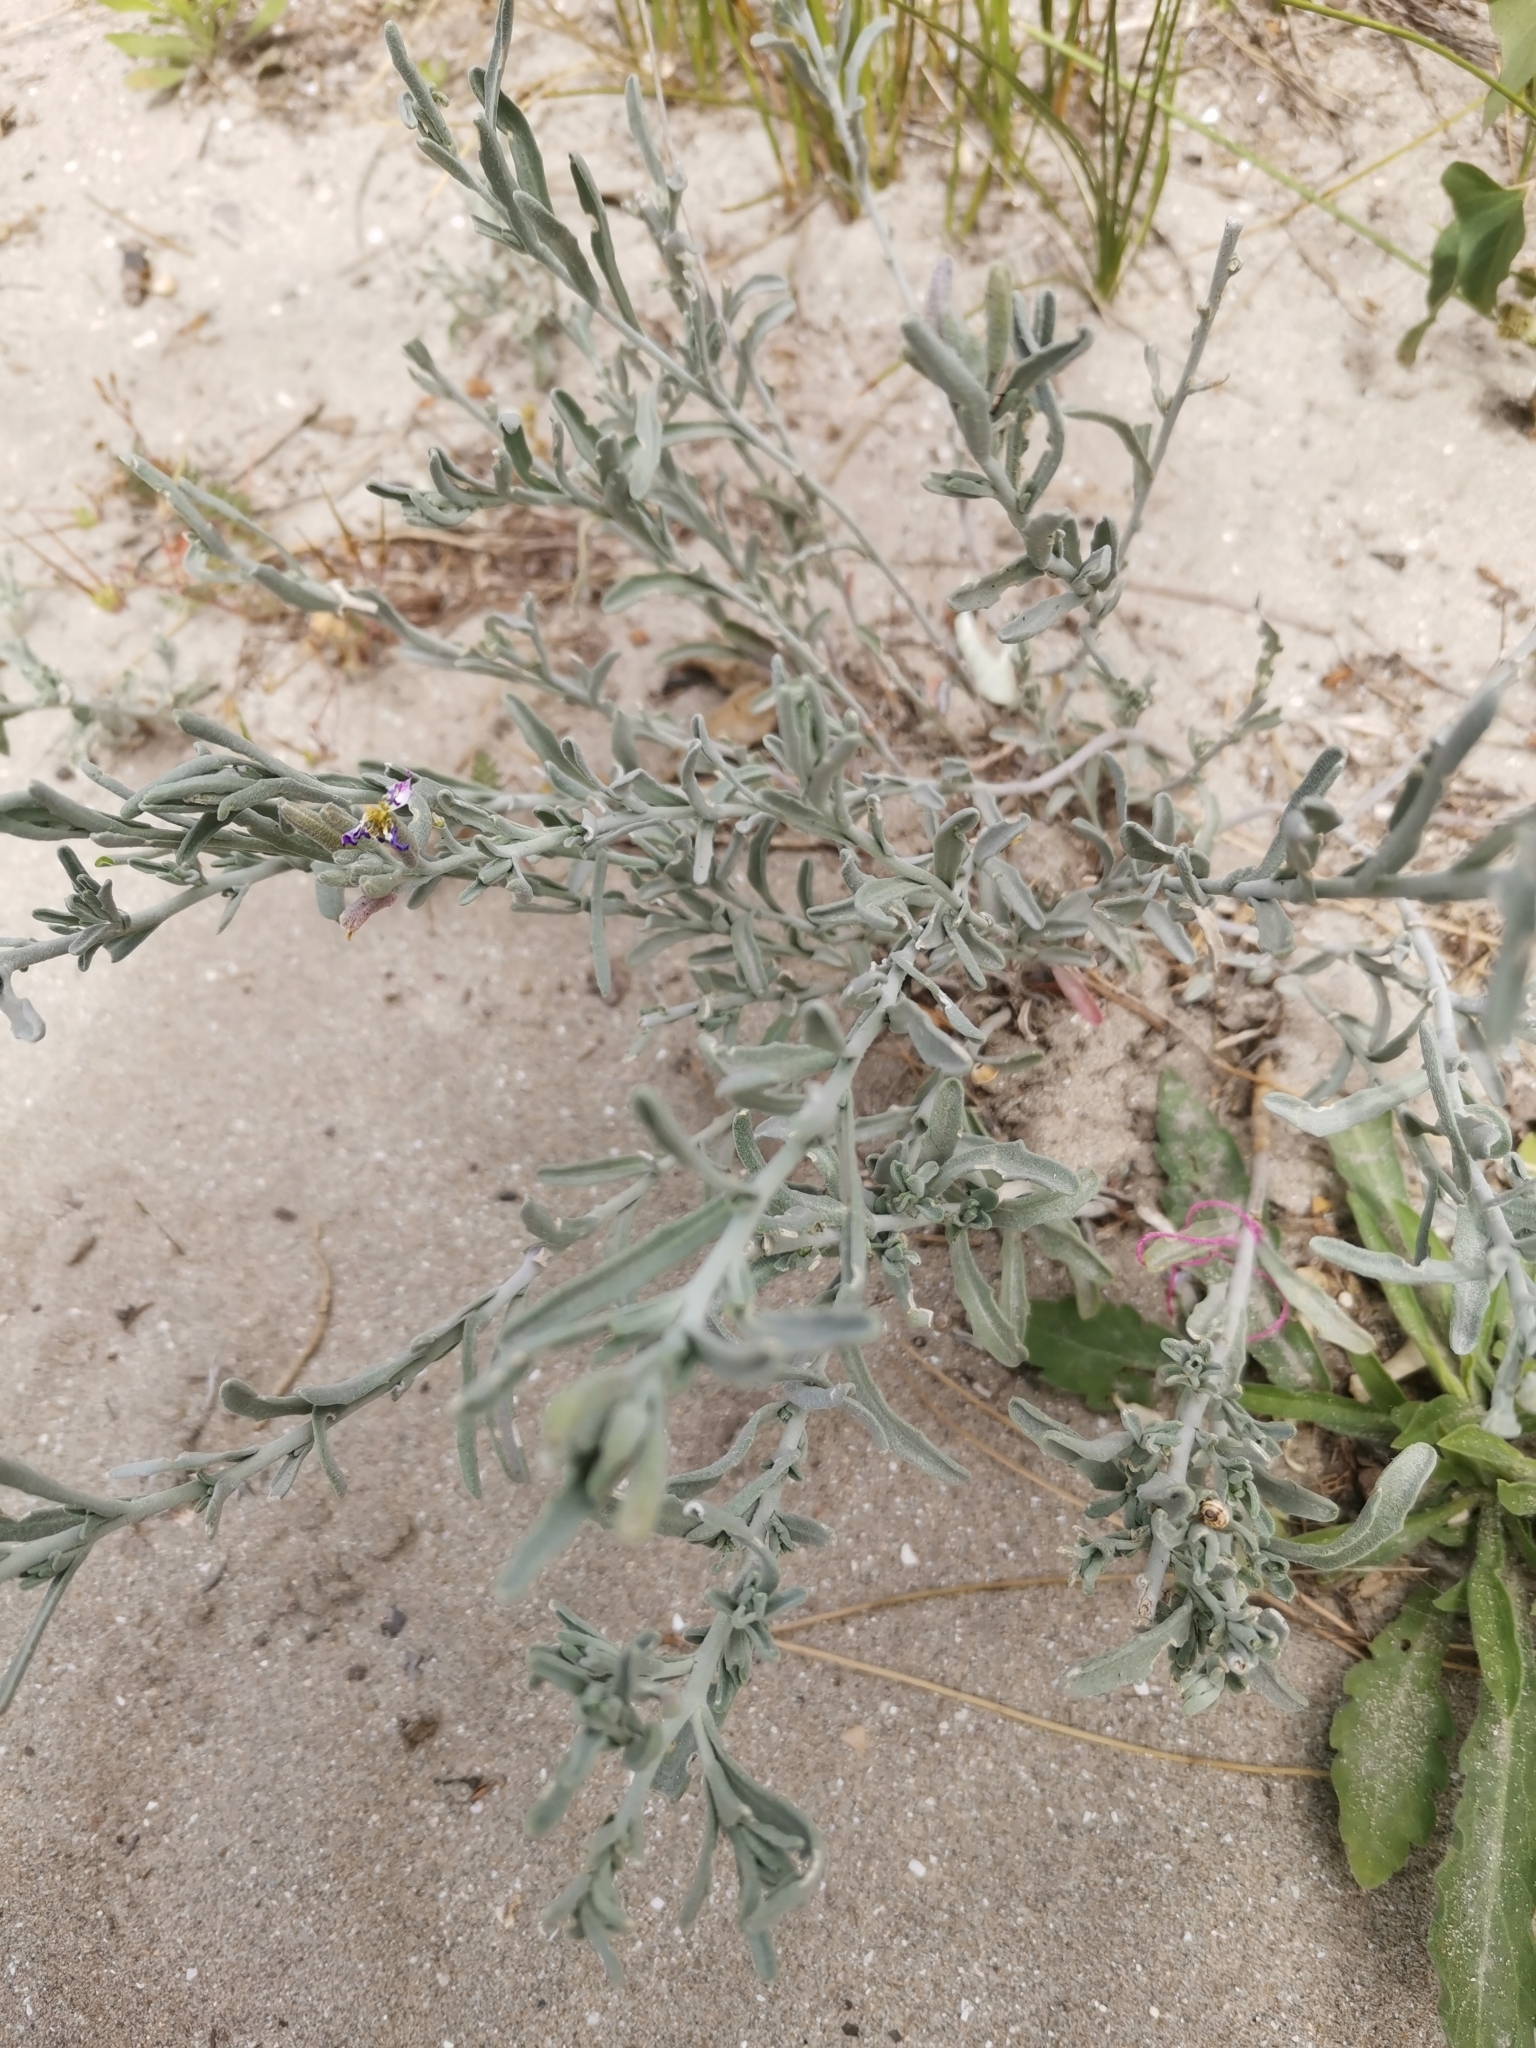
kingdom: Plantae
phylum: Tracheophyta
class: Magnoliopsida
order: Brassicales
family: Brassicaceae
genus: Marcuskochia
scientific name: Marcuskochia littorea
